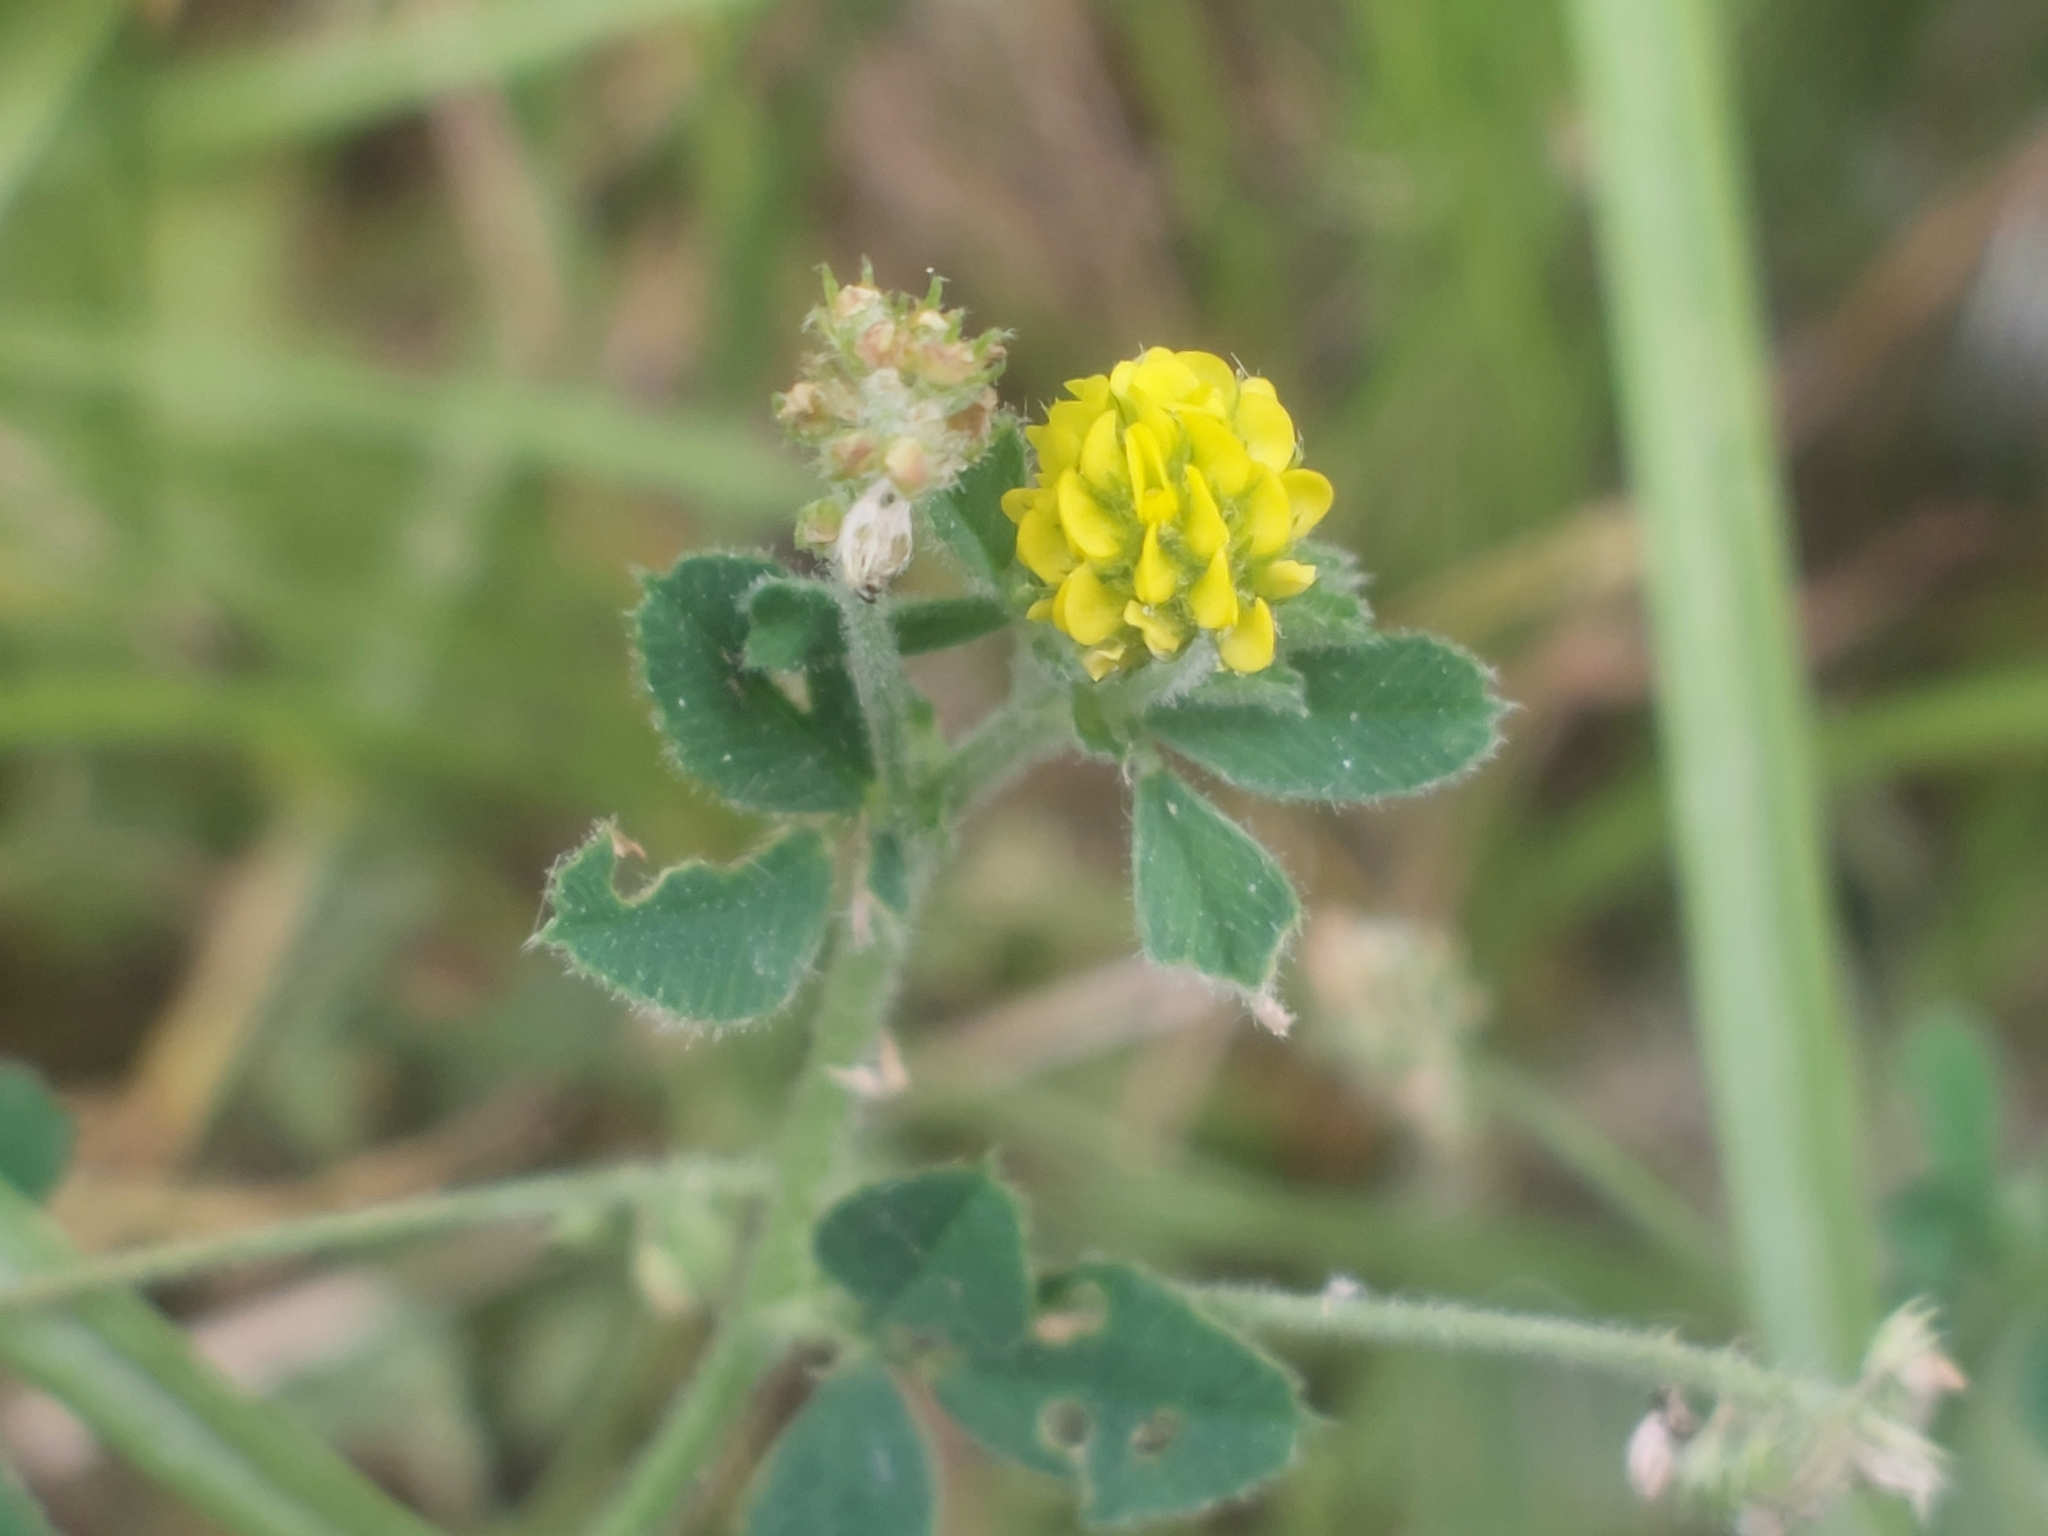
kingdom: Plantae
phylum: Tracheophyta
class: Magnoliopsida
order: Fabales
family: Fabaceae
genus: Medicago
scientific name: Medicago lupulina
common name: Black medick
